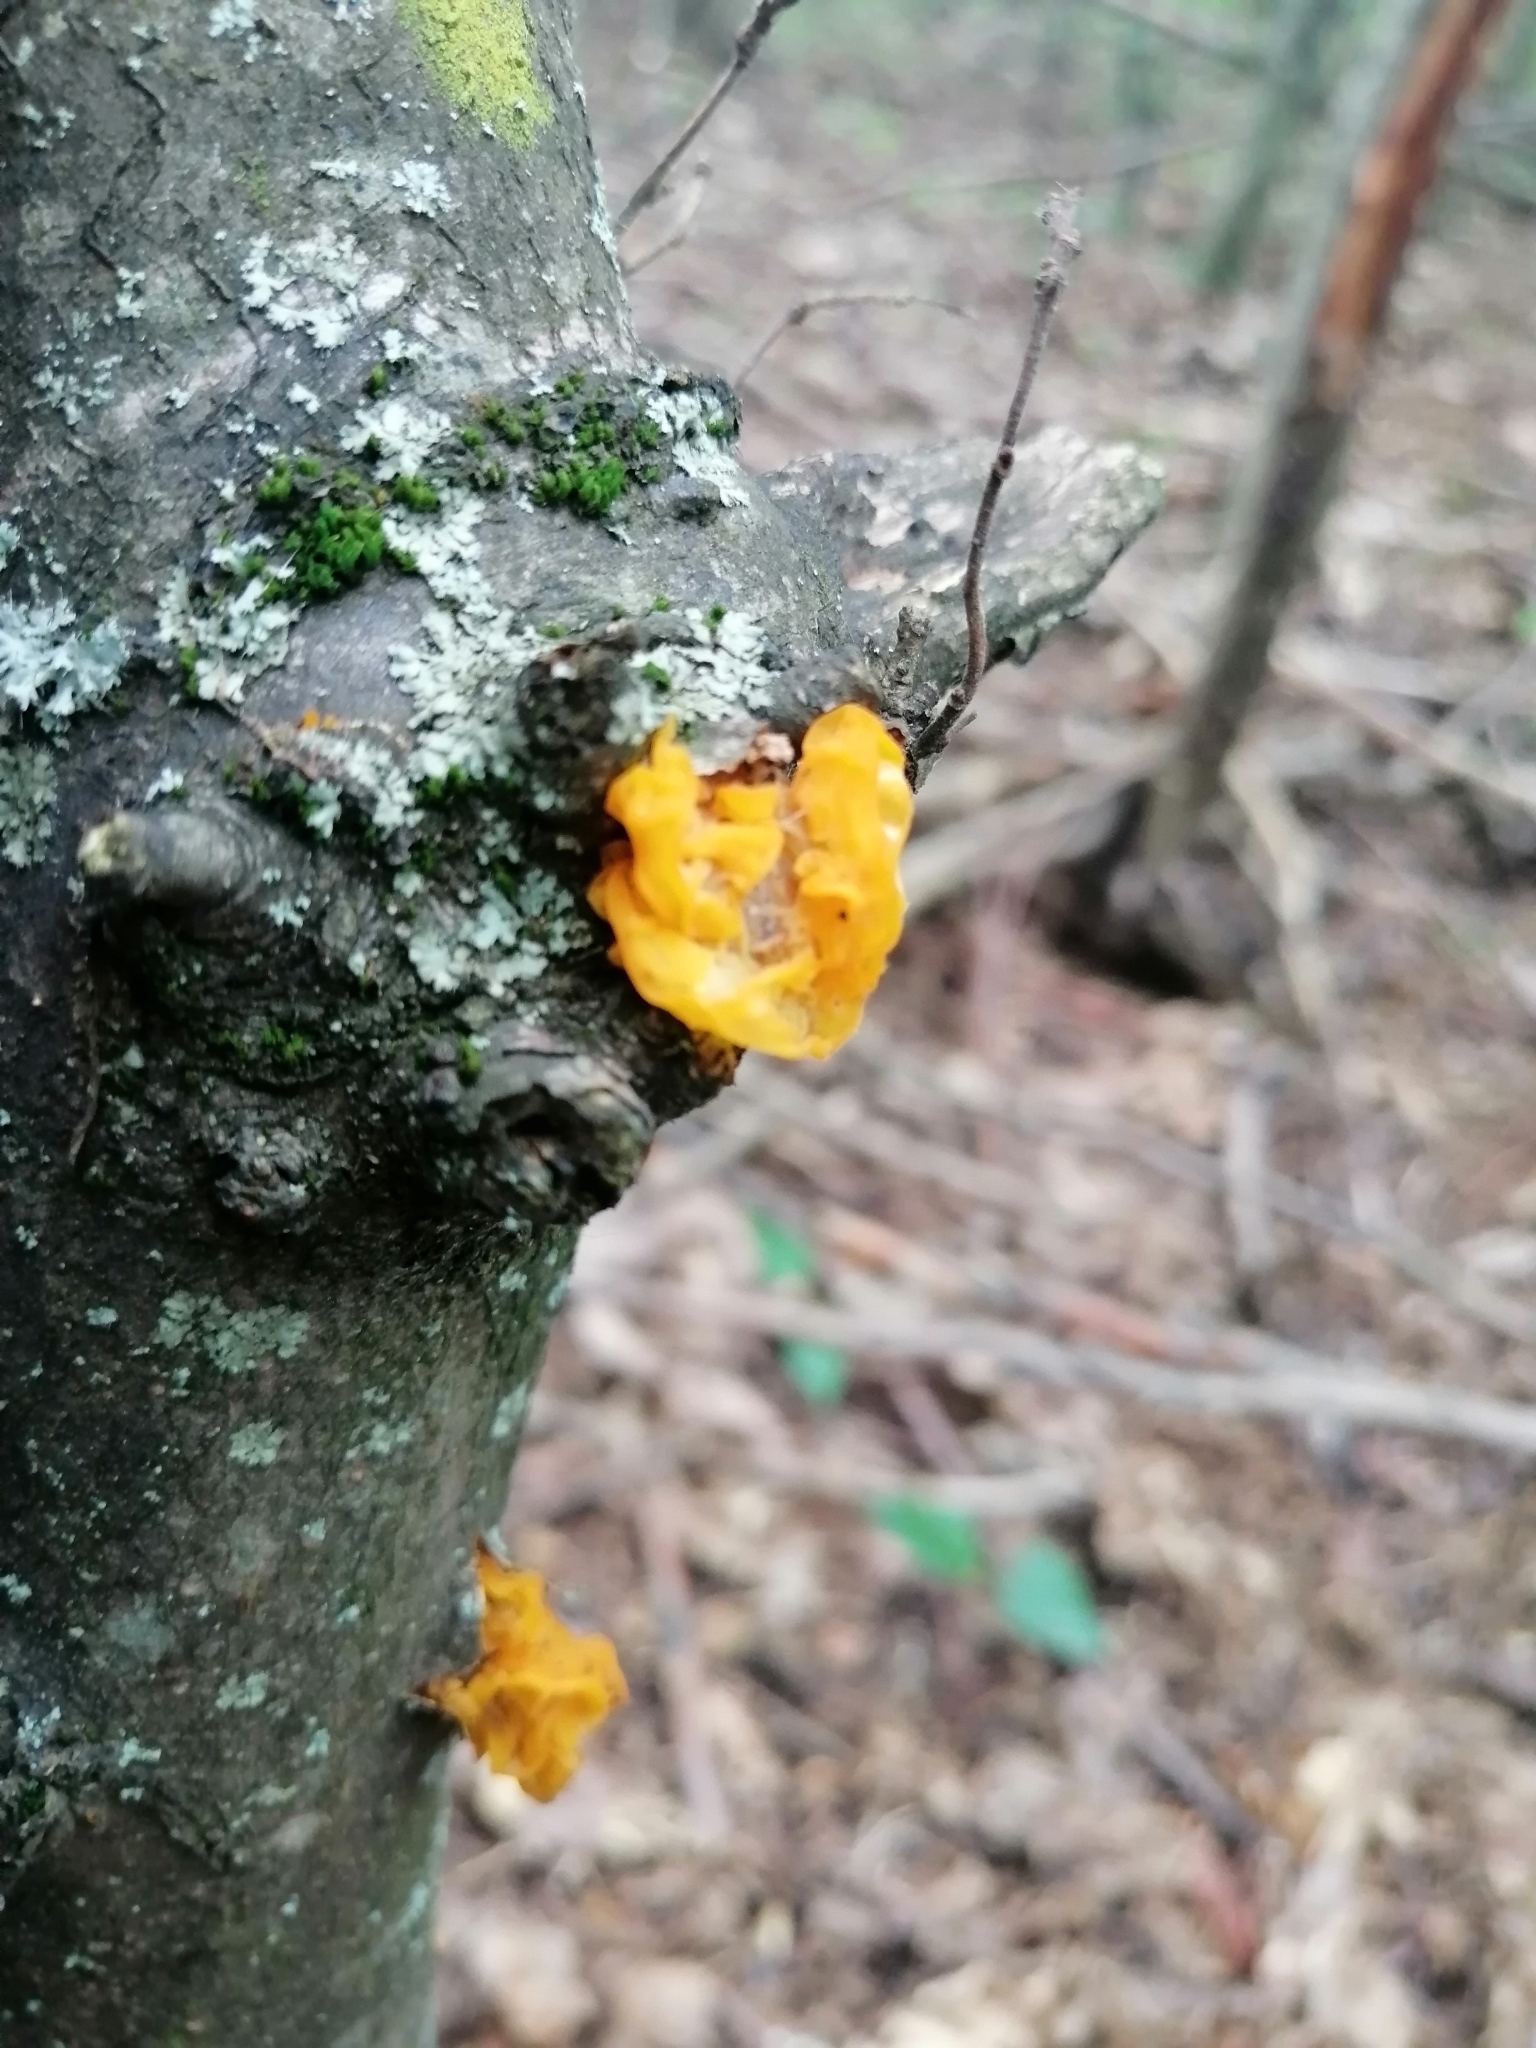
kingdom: Fungi
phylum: Basidiomycota
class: Tremellomycetes
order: Tremellales
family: Tremellaceae
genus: Tremella
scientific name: Tremella mesenterica
